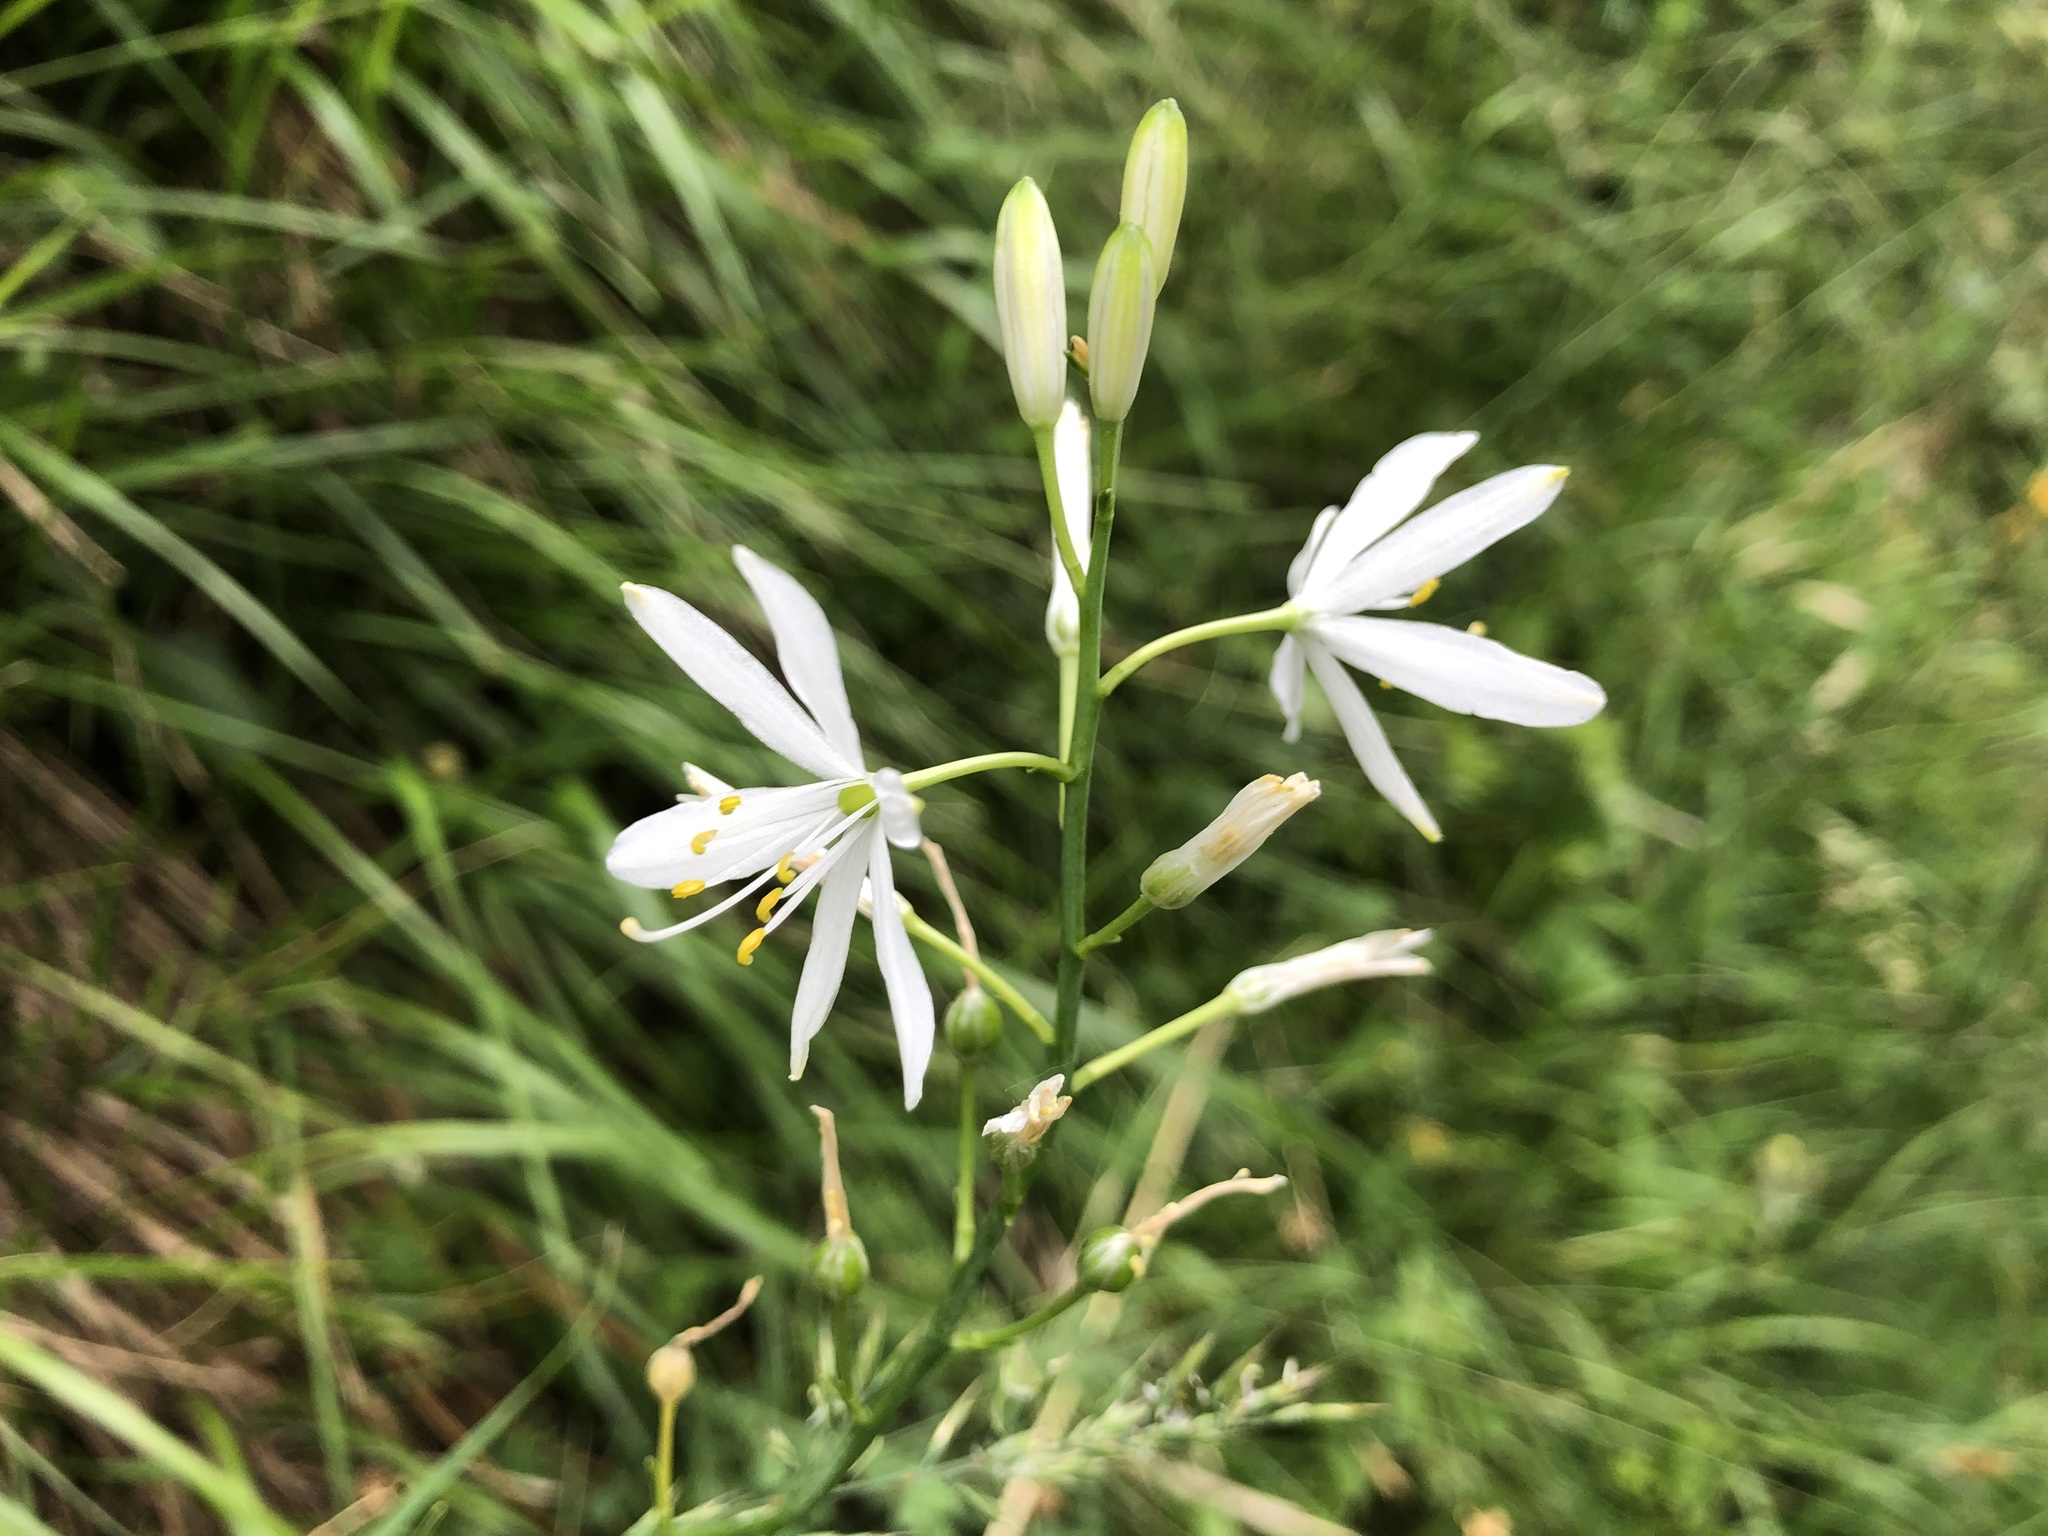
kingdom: Plantae
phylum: Tracheophyta
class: Liliopsida
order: Asparagales
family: Asparagaceae
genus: Anthericum
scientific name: Anthericum liliago
